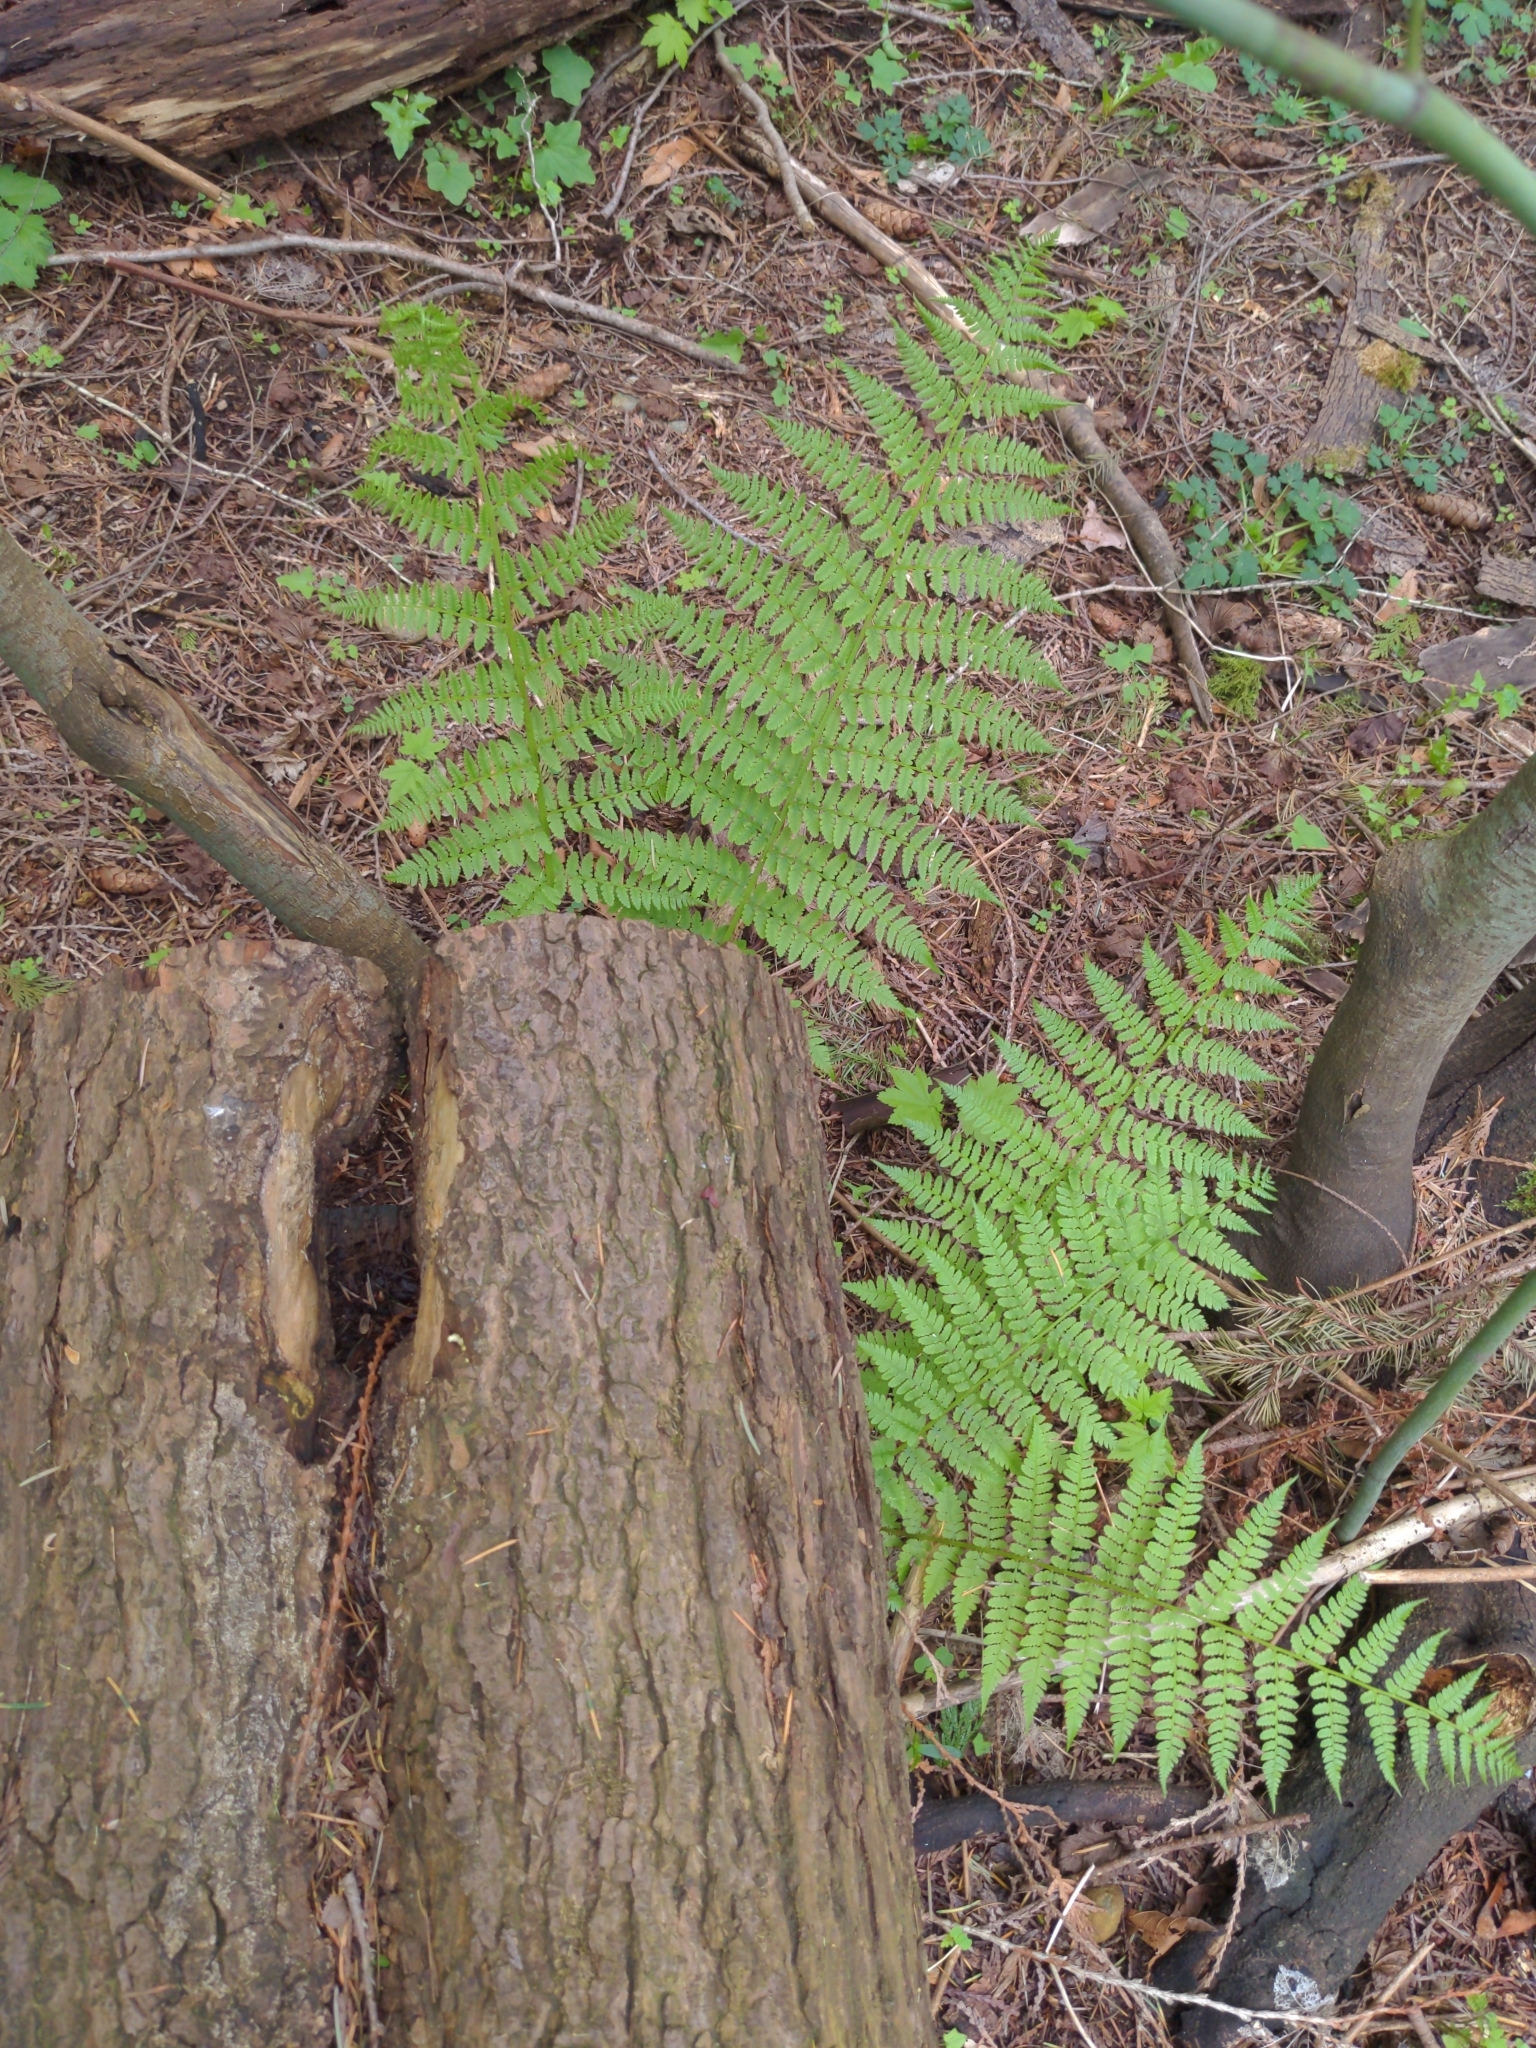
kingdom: Plantae
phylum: Tracheophyta
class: Polypodiopsida
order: Polypodiales
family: Athyriaceae
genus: Athyrium
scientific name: Athyrium cyclosorum
